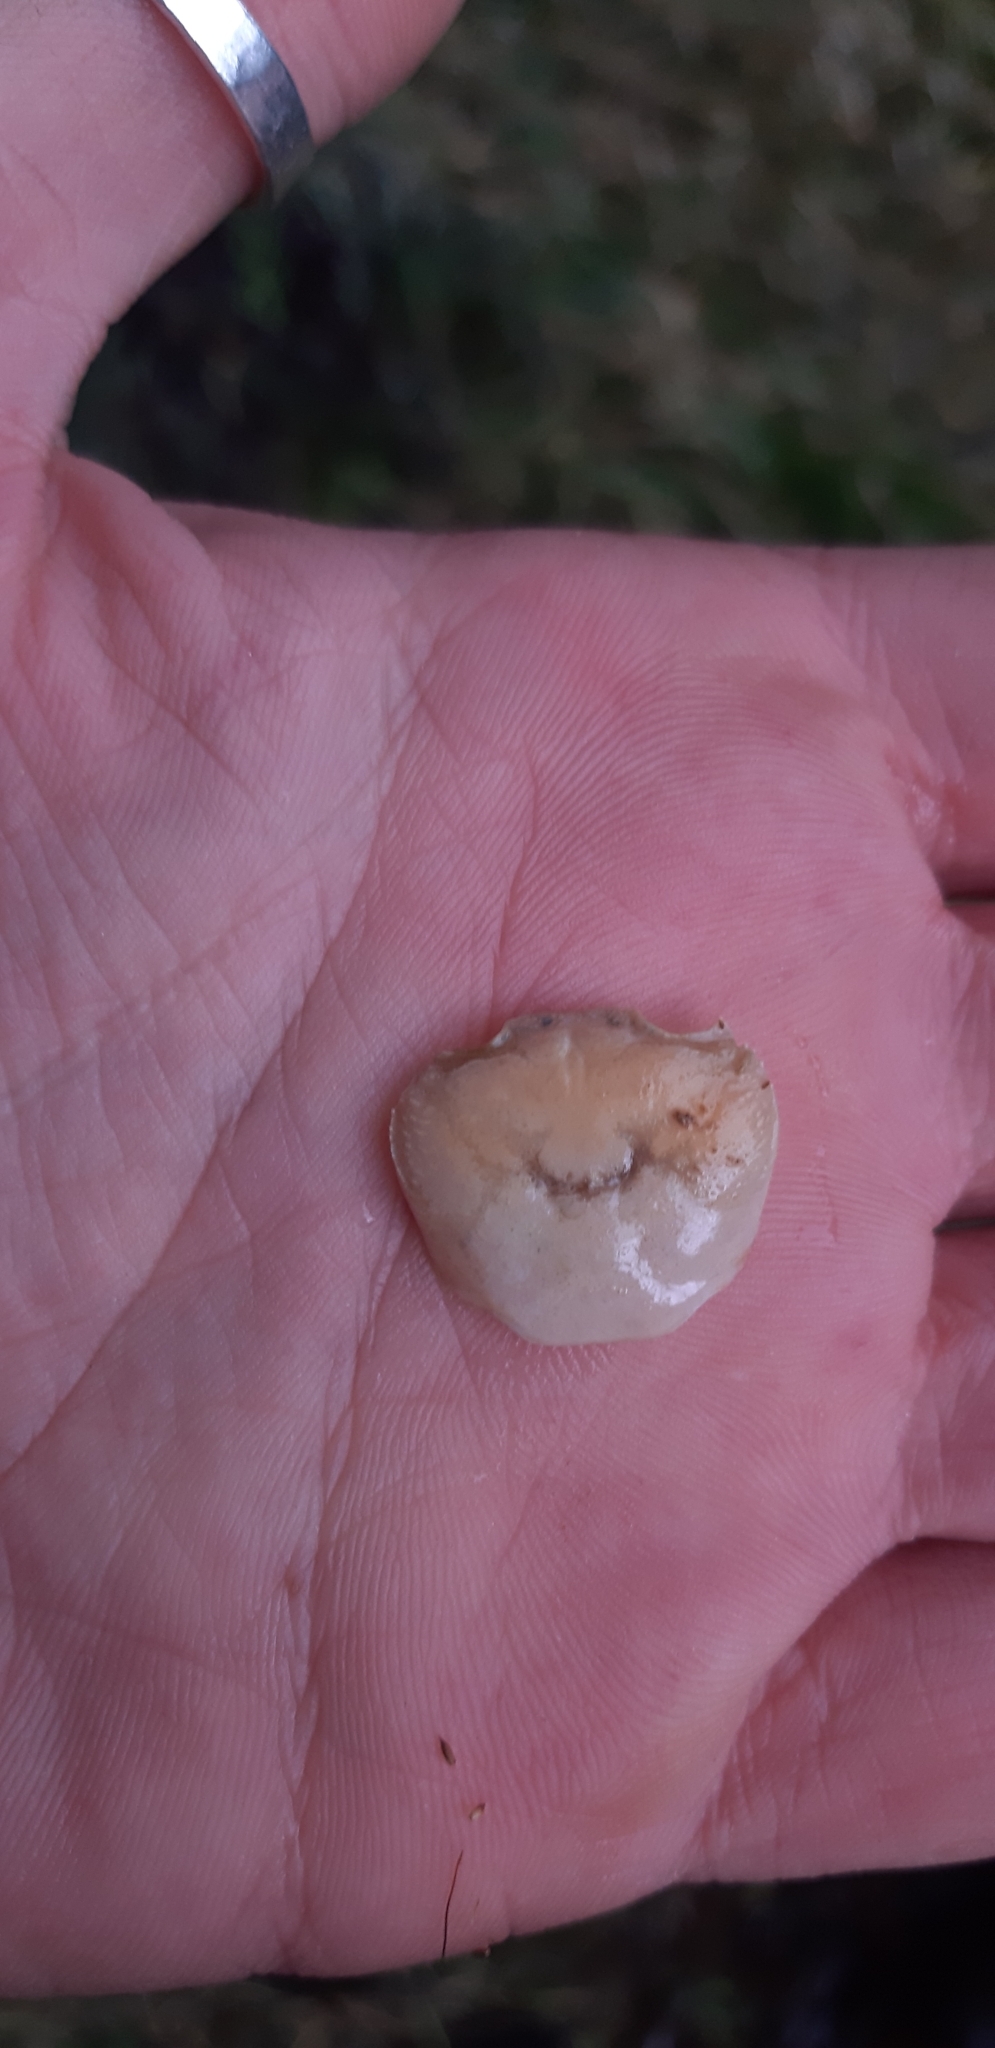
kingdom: Animalia
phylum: Arthropoda
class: Malacostraca
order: Decapoda
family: Potamidae
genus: Potamon
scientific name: Potamon fluviatile
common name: Italian freshwater crab
